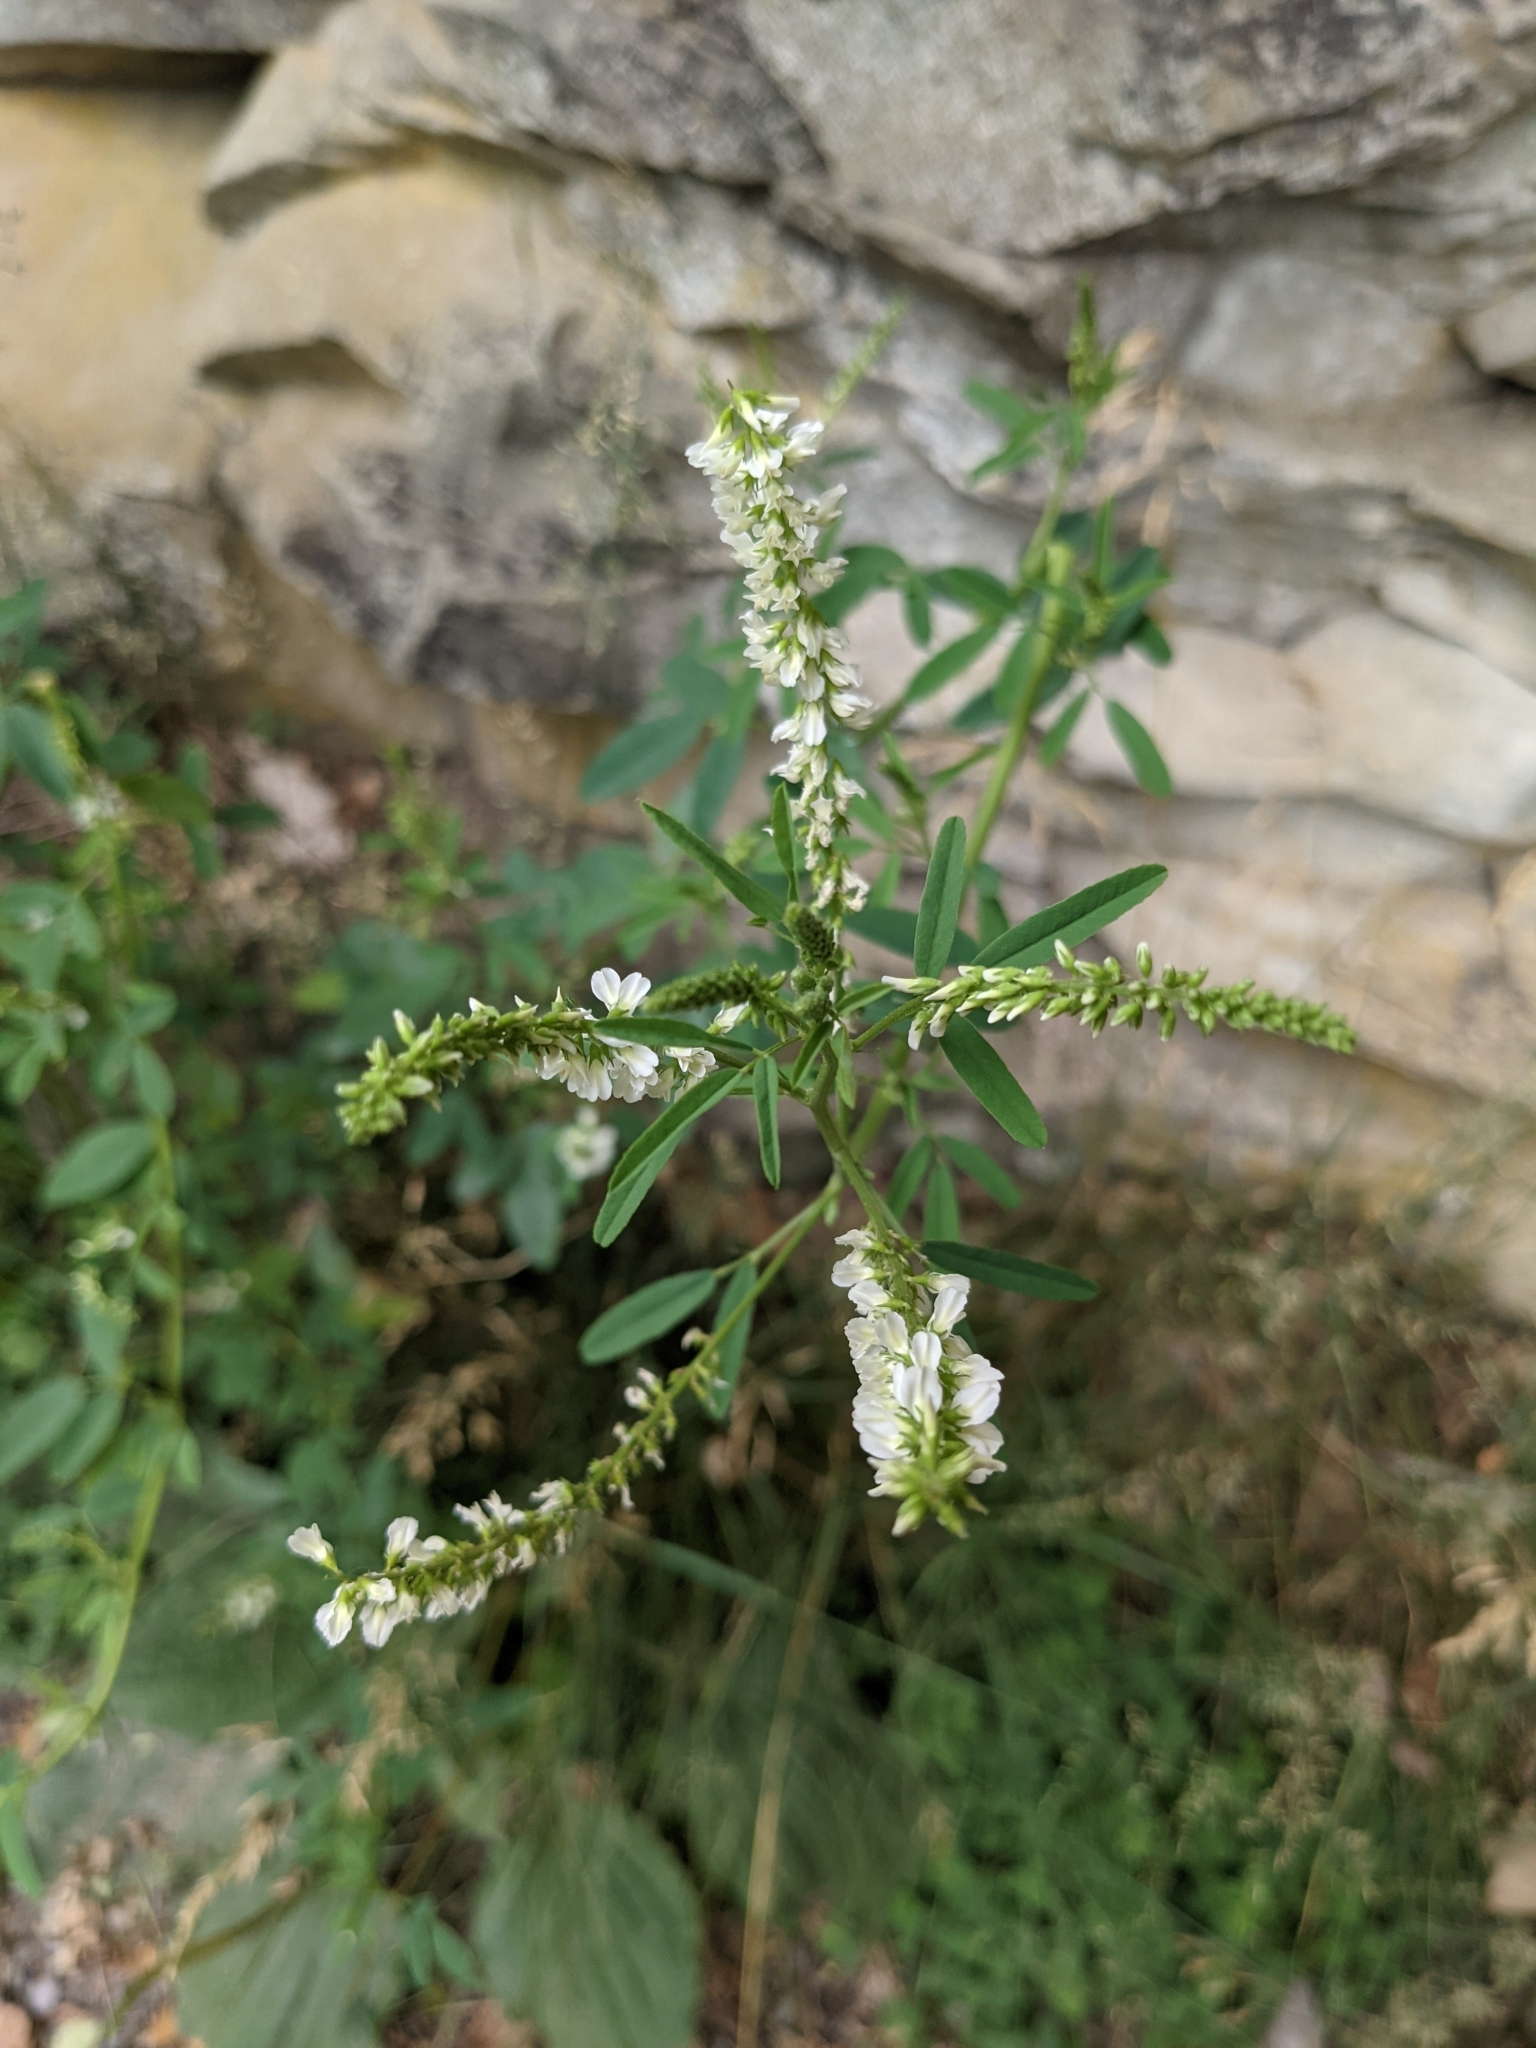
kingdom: Plantae
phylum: Tracheophyta
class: Magnoliopsida
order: Fabales
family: Fabaceae
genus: Melilotus
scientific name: Melilotus albus
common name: White melilot
